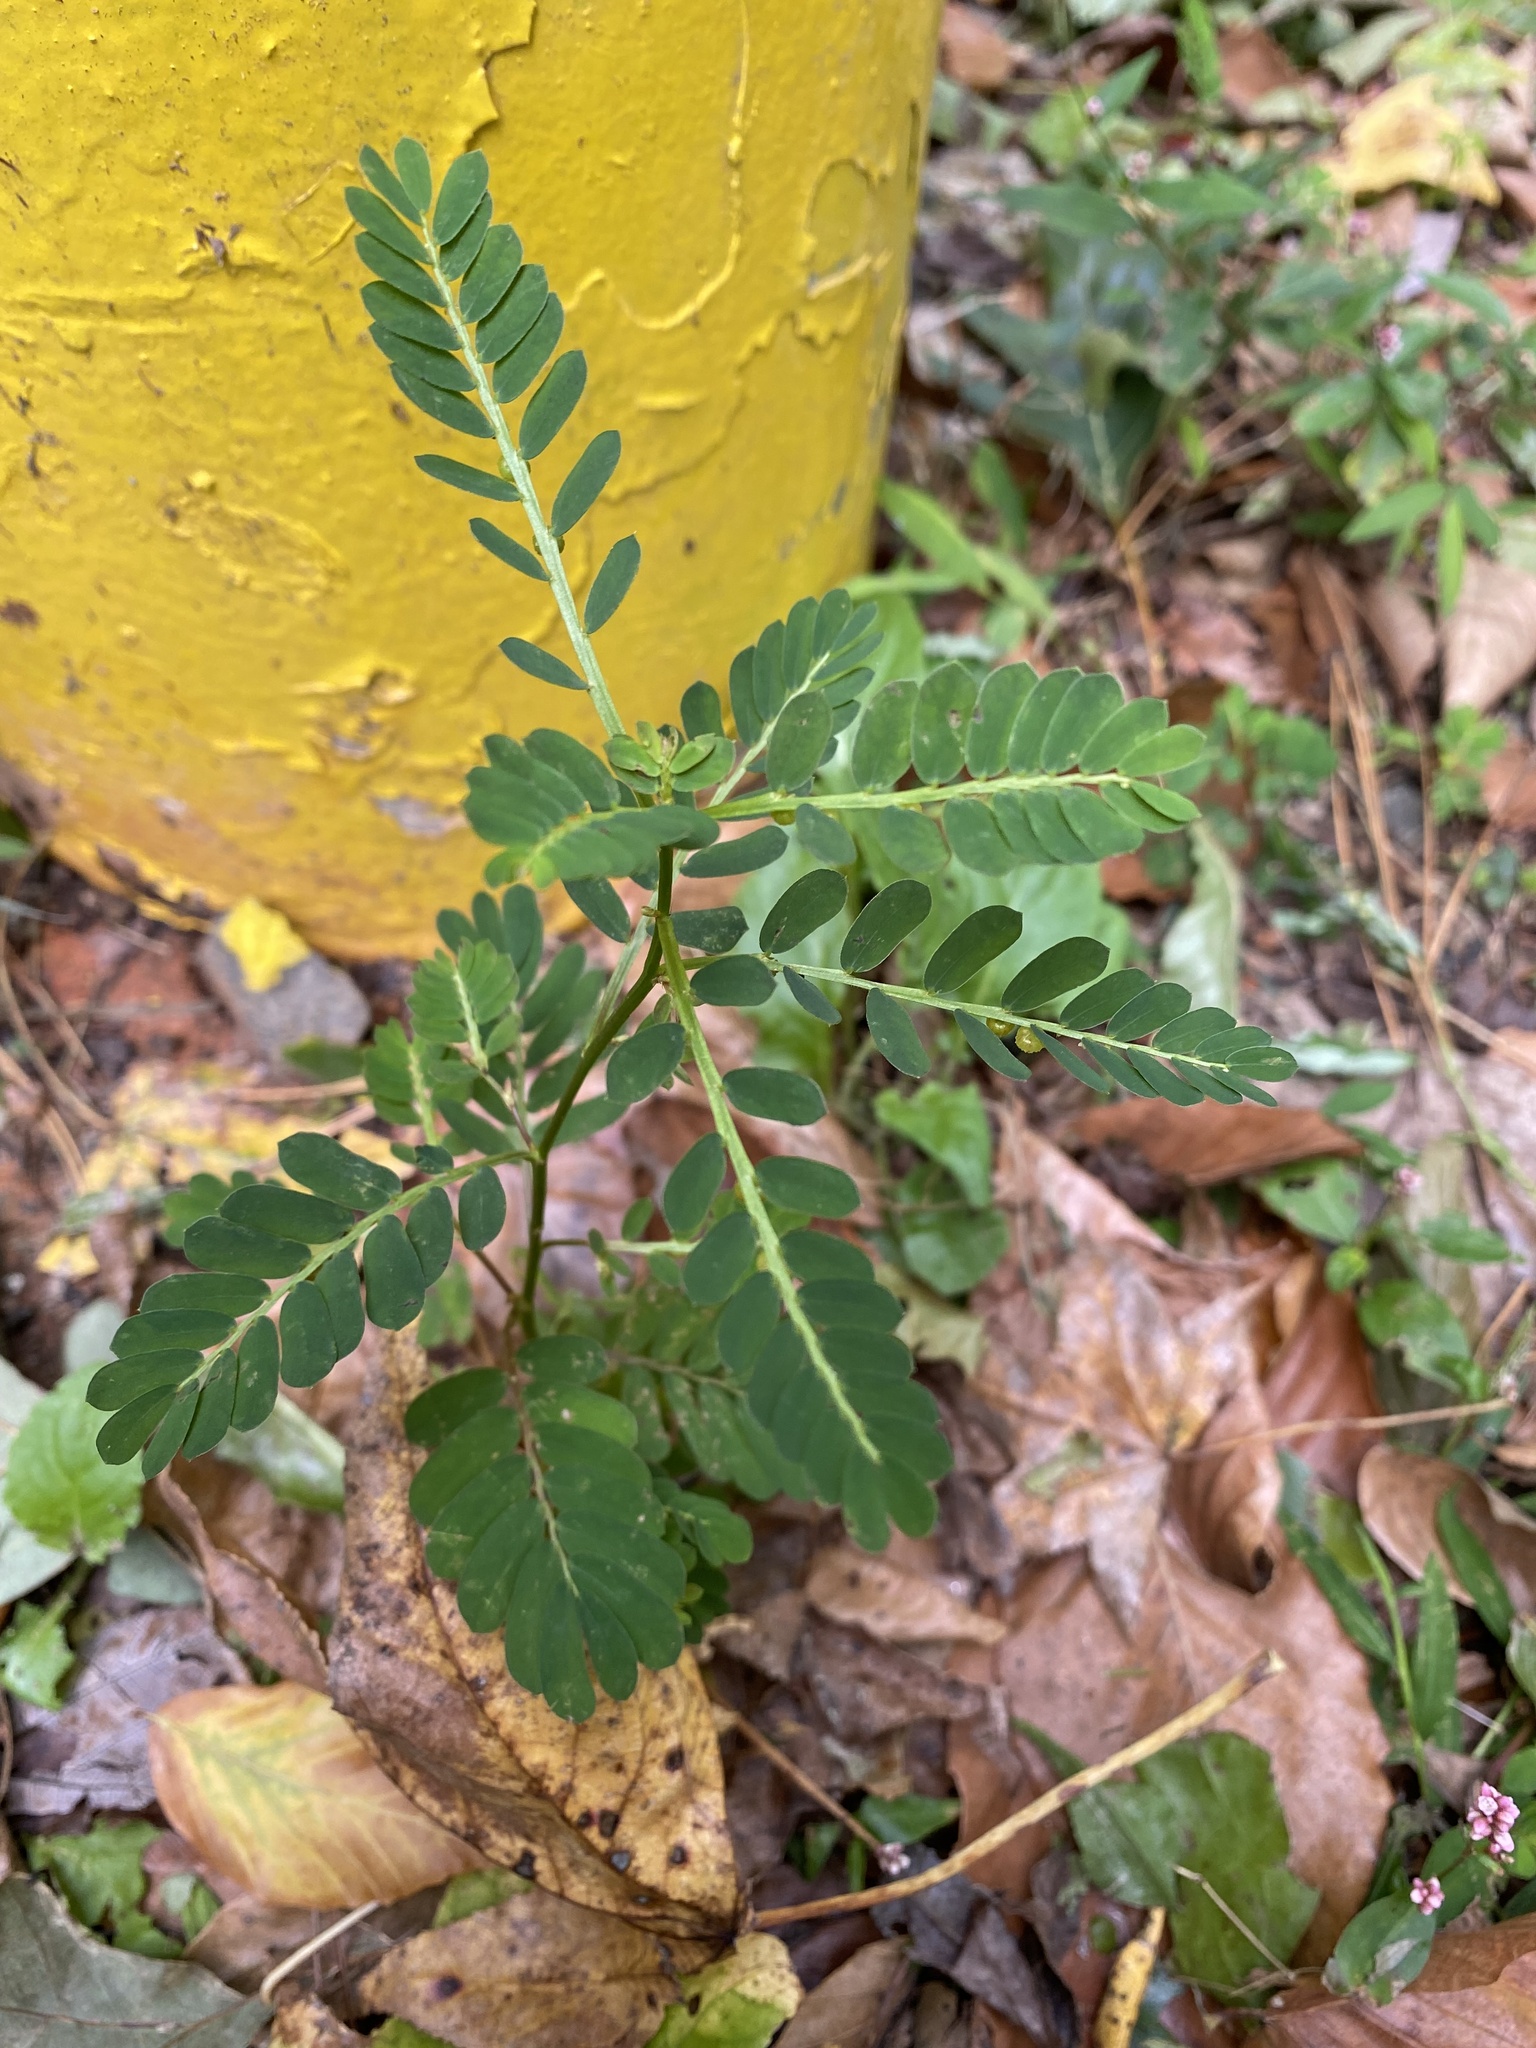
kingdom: Plantae
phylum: Tracheophyta
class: Magnoliopsida
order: Malpighiales
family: Phyllanthaceae
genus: Phyllanthus
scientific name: Phyllanthus urinaria
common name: Chamber bitter
